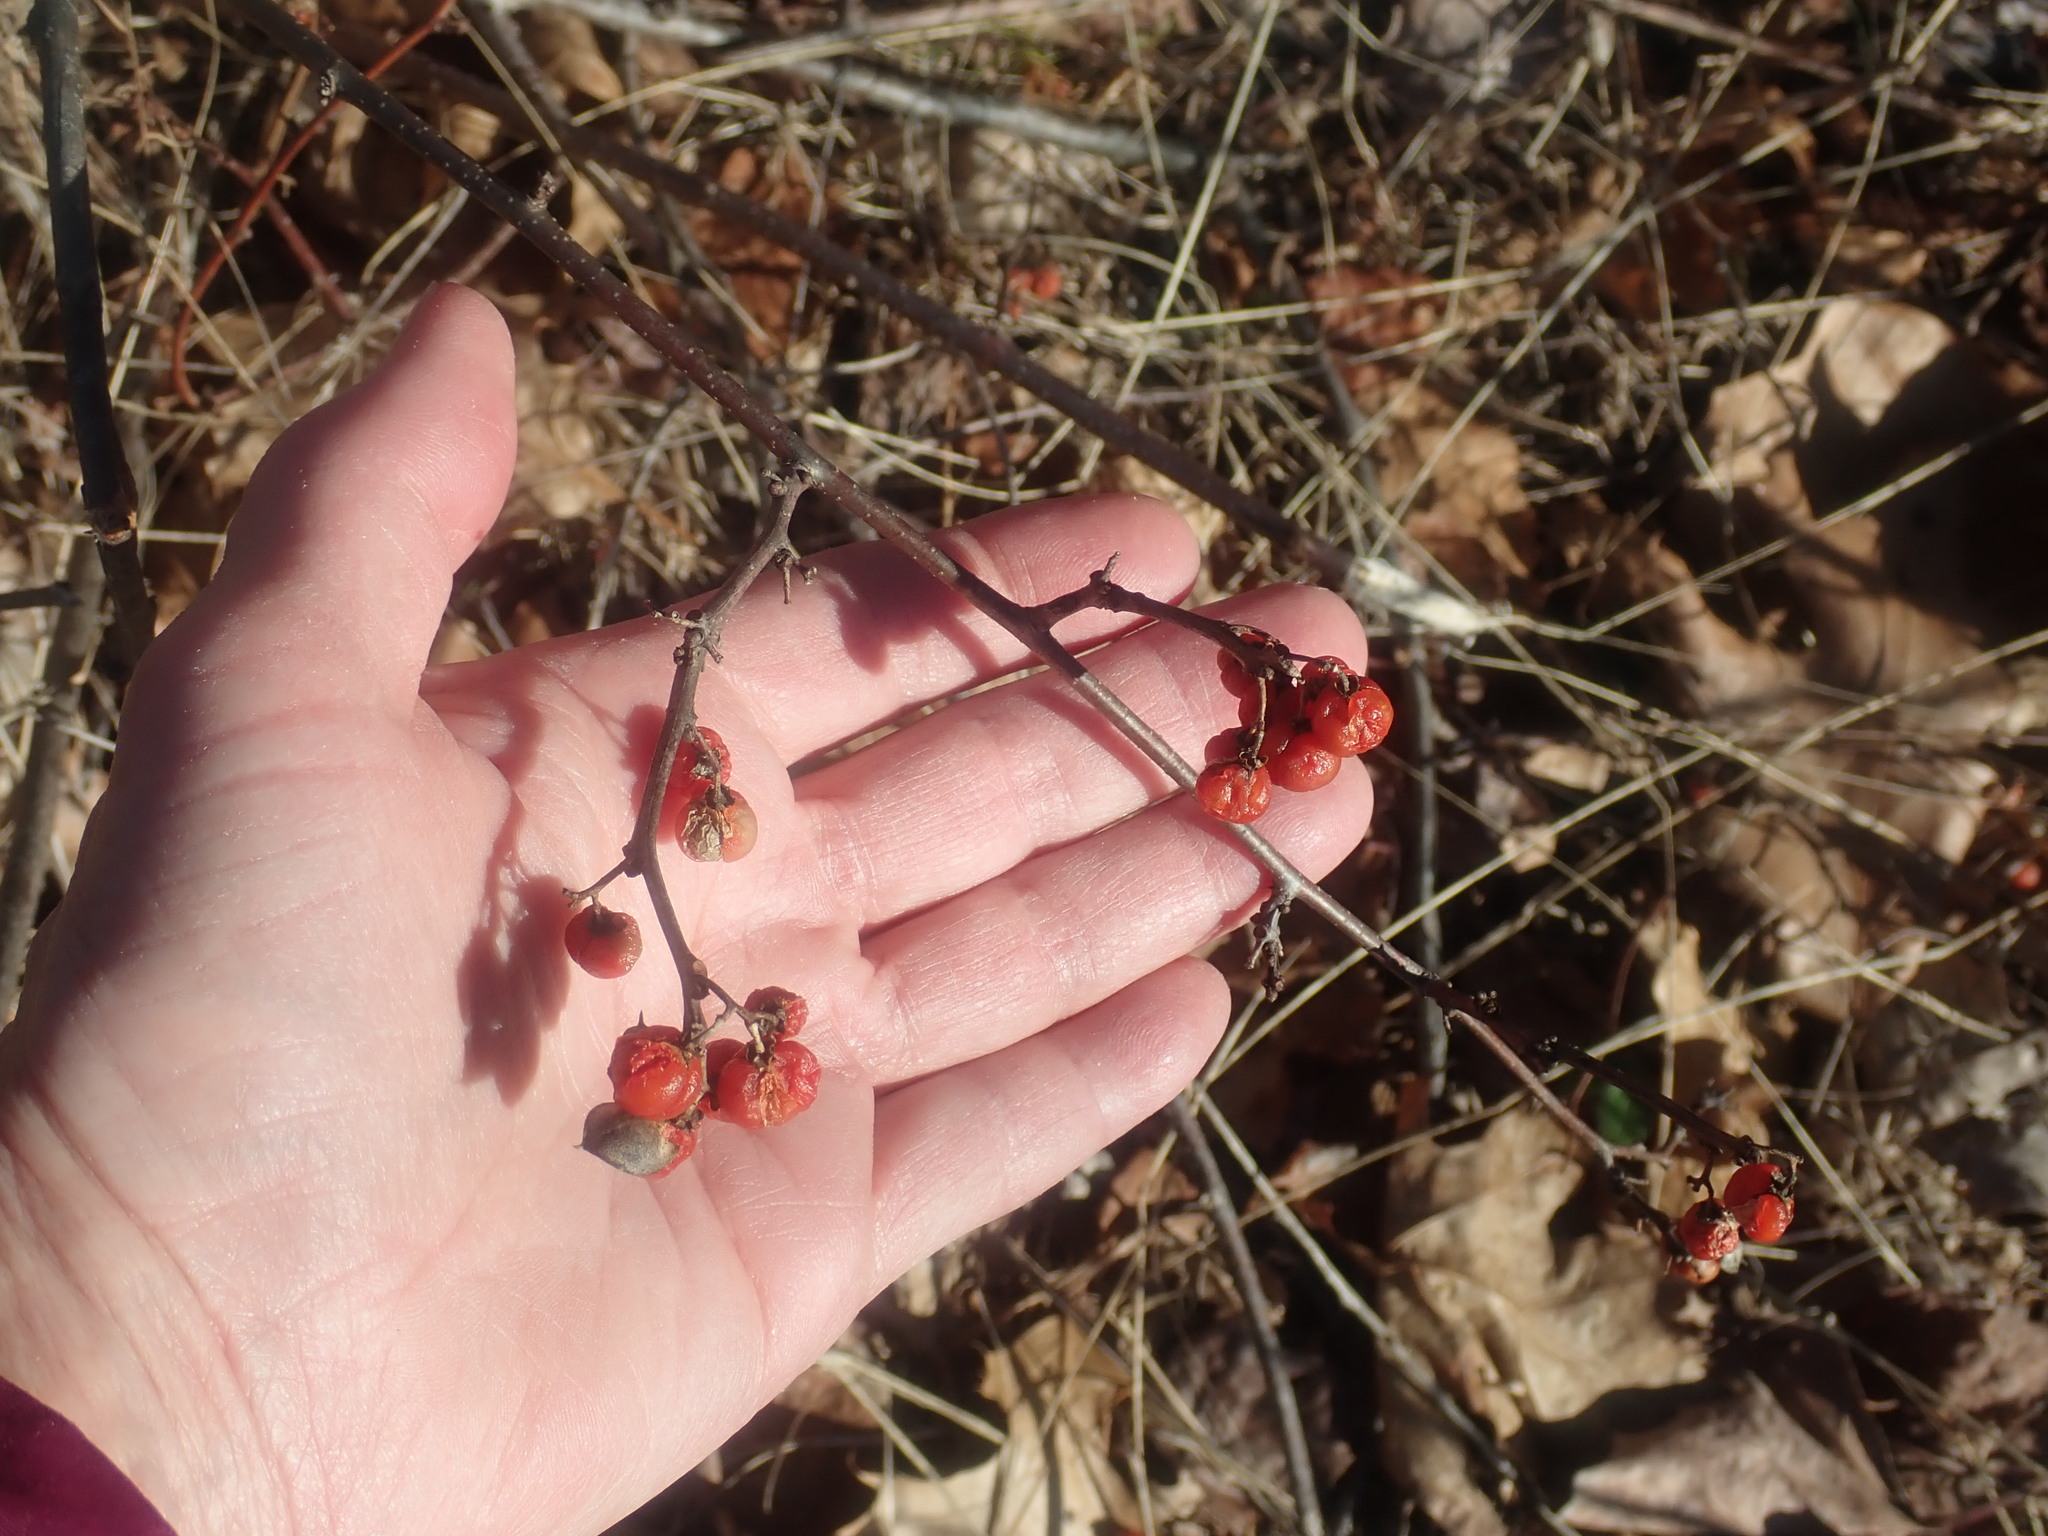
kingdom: Plantae
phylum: Tracheophyta
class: Magnoliopsida
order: Celastrales
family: Celastraceae
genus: Celastrus
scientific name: Celastrus orbiculatus
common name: Oriental bittersweet
